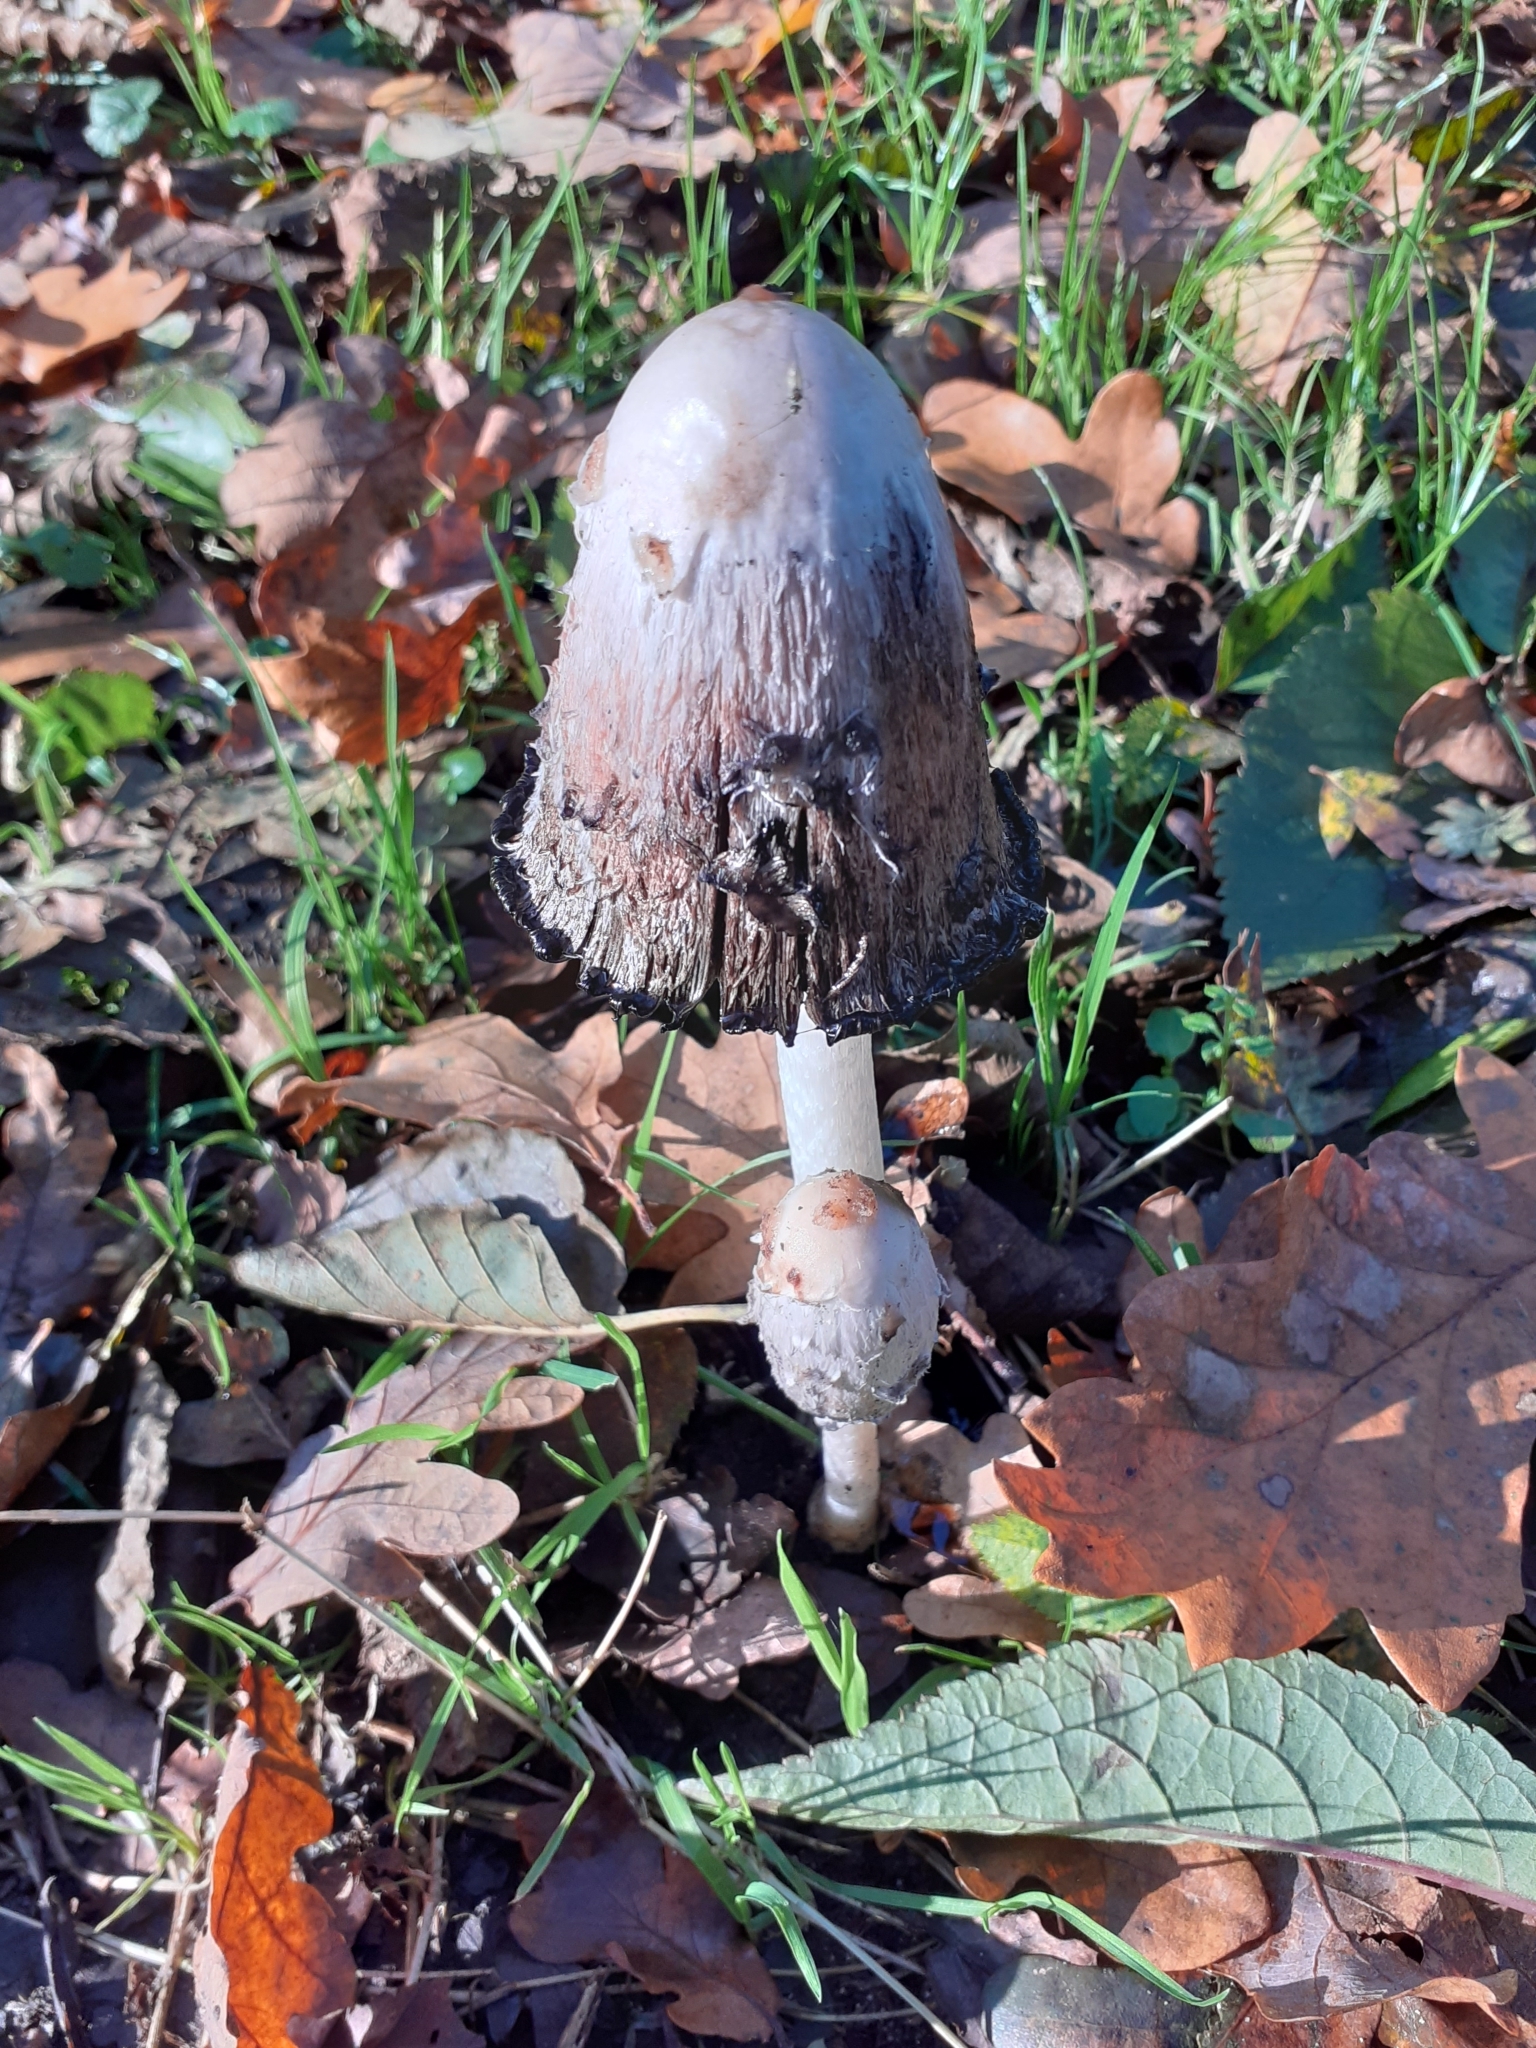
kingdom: Fungi
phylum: Basidiomycota
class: Agaricomycetes
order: Agaricales
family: Agaricaceae
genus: Coprinus
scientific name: Coprinus comatus
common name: Lawyer's wig
